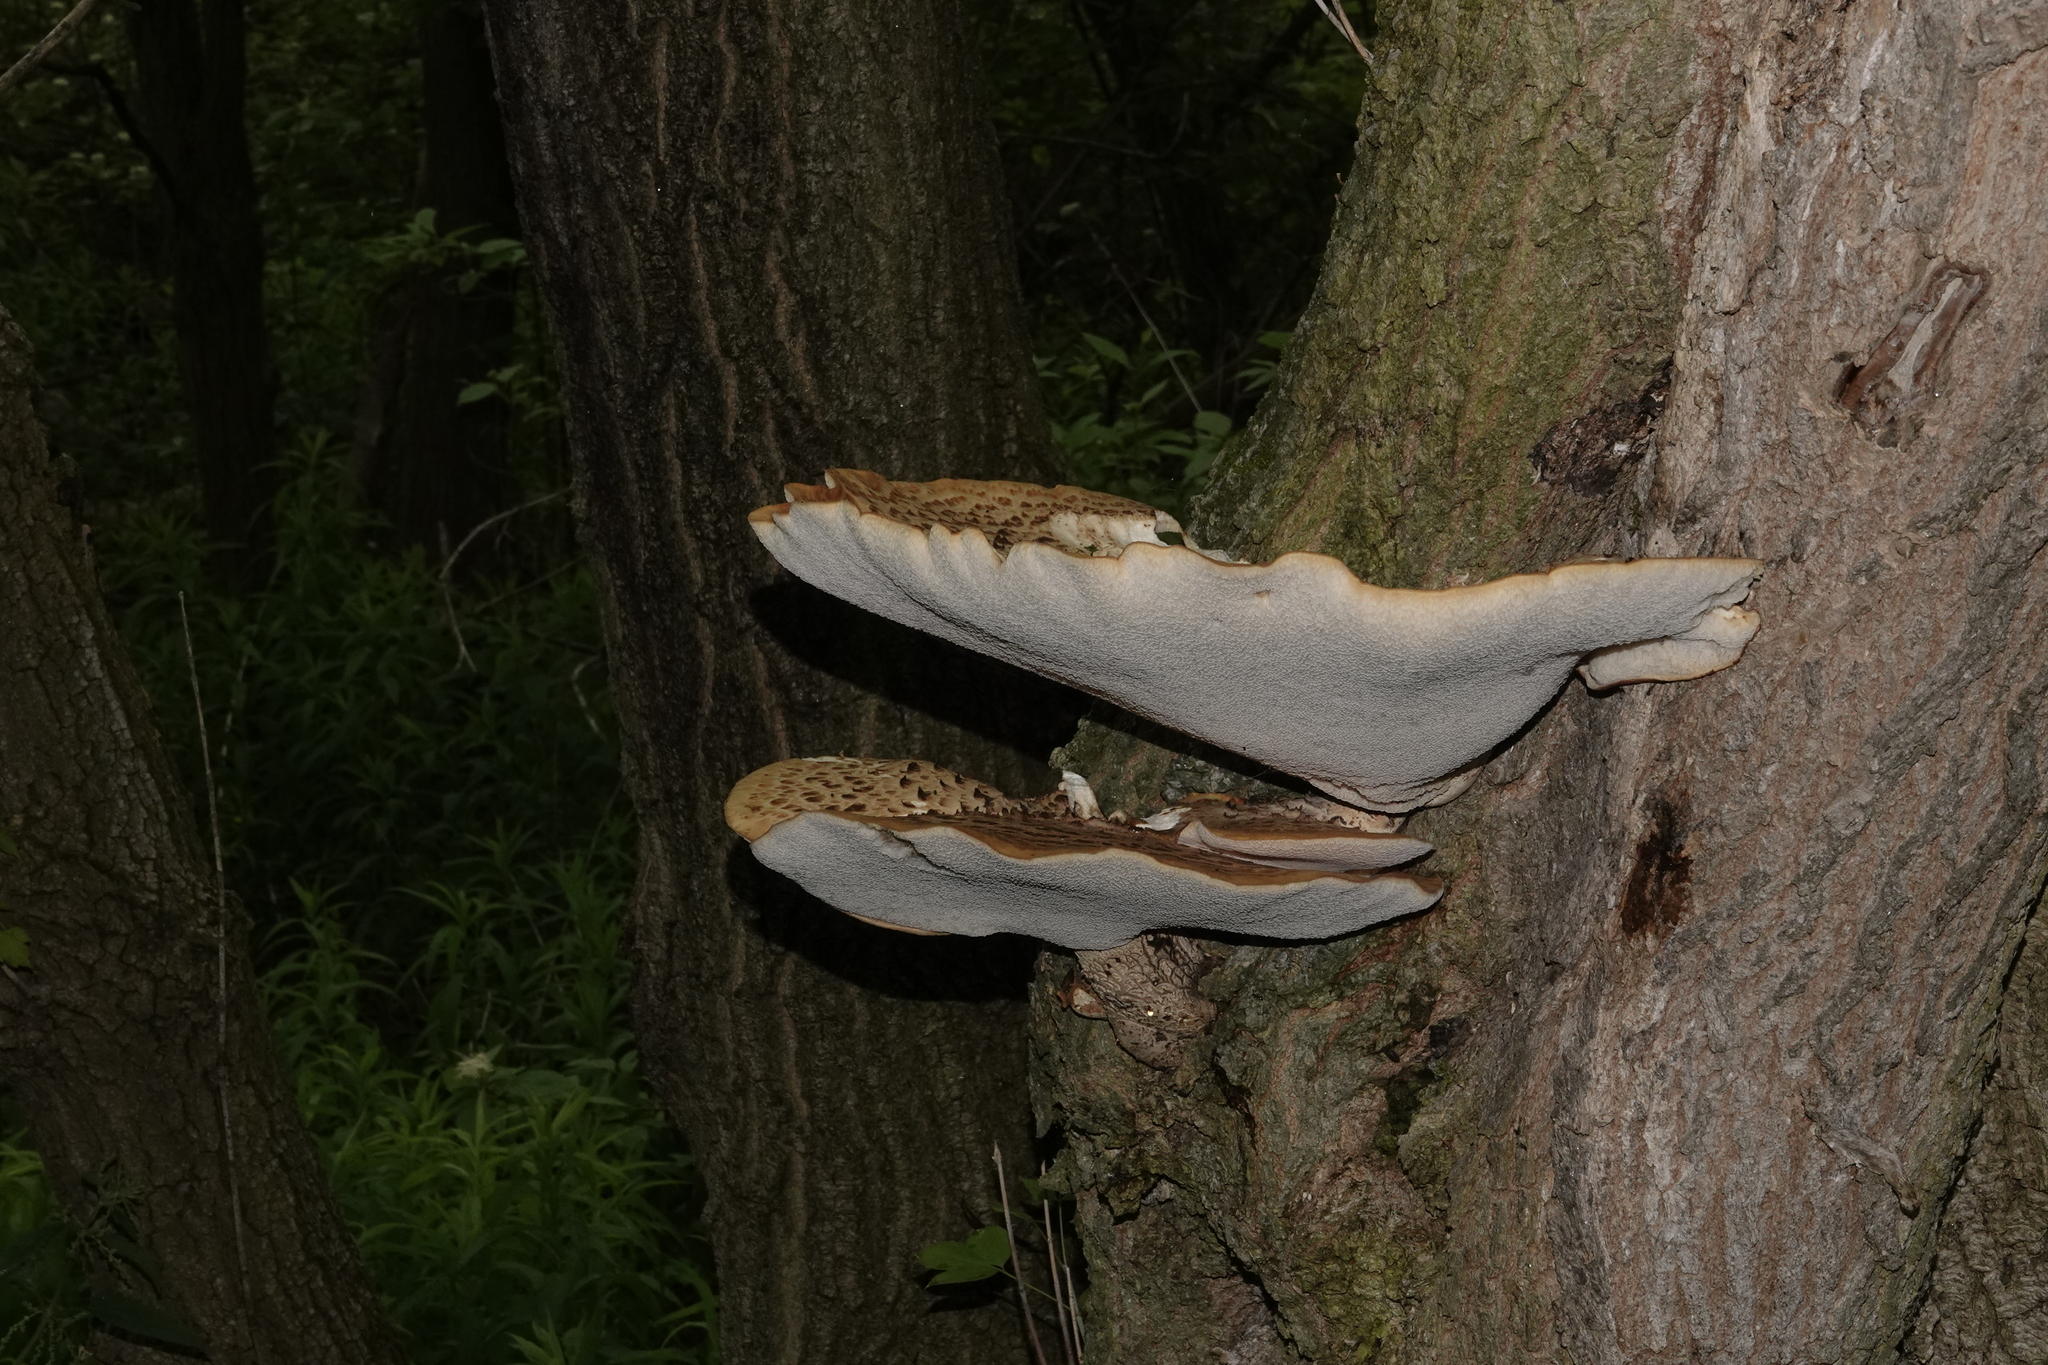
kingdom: Fungi
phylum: Basidiomycota
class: Agaricomycetes
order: Polyporales
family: Polyporaceae
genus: Cerioporus
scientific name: Cerioporus squamosus
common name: Dryad's saddle
